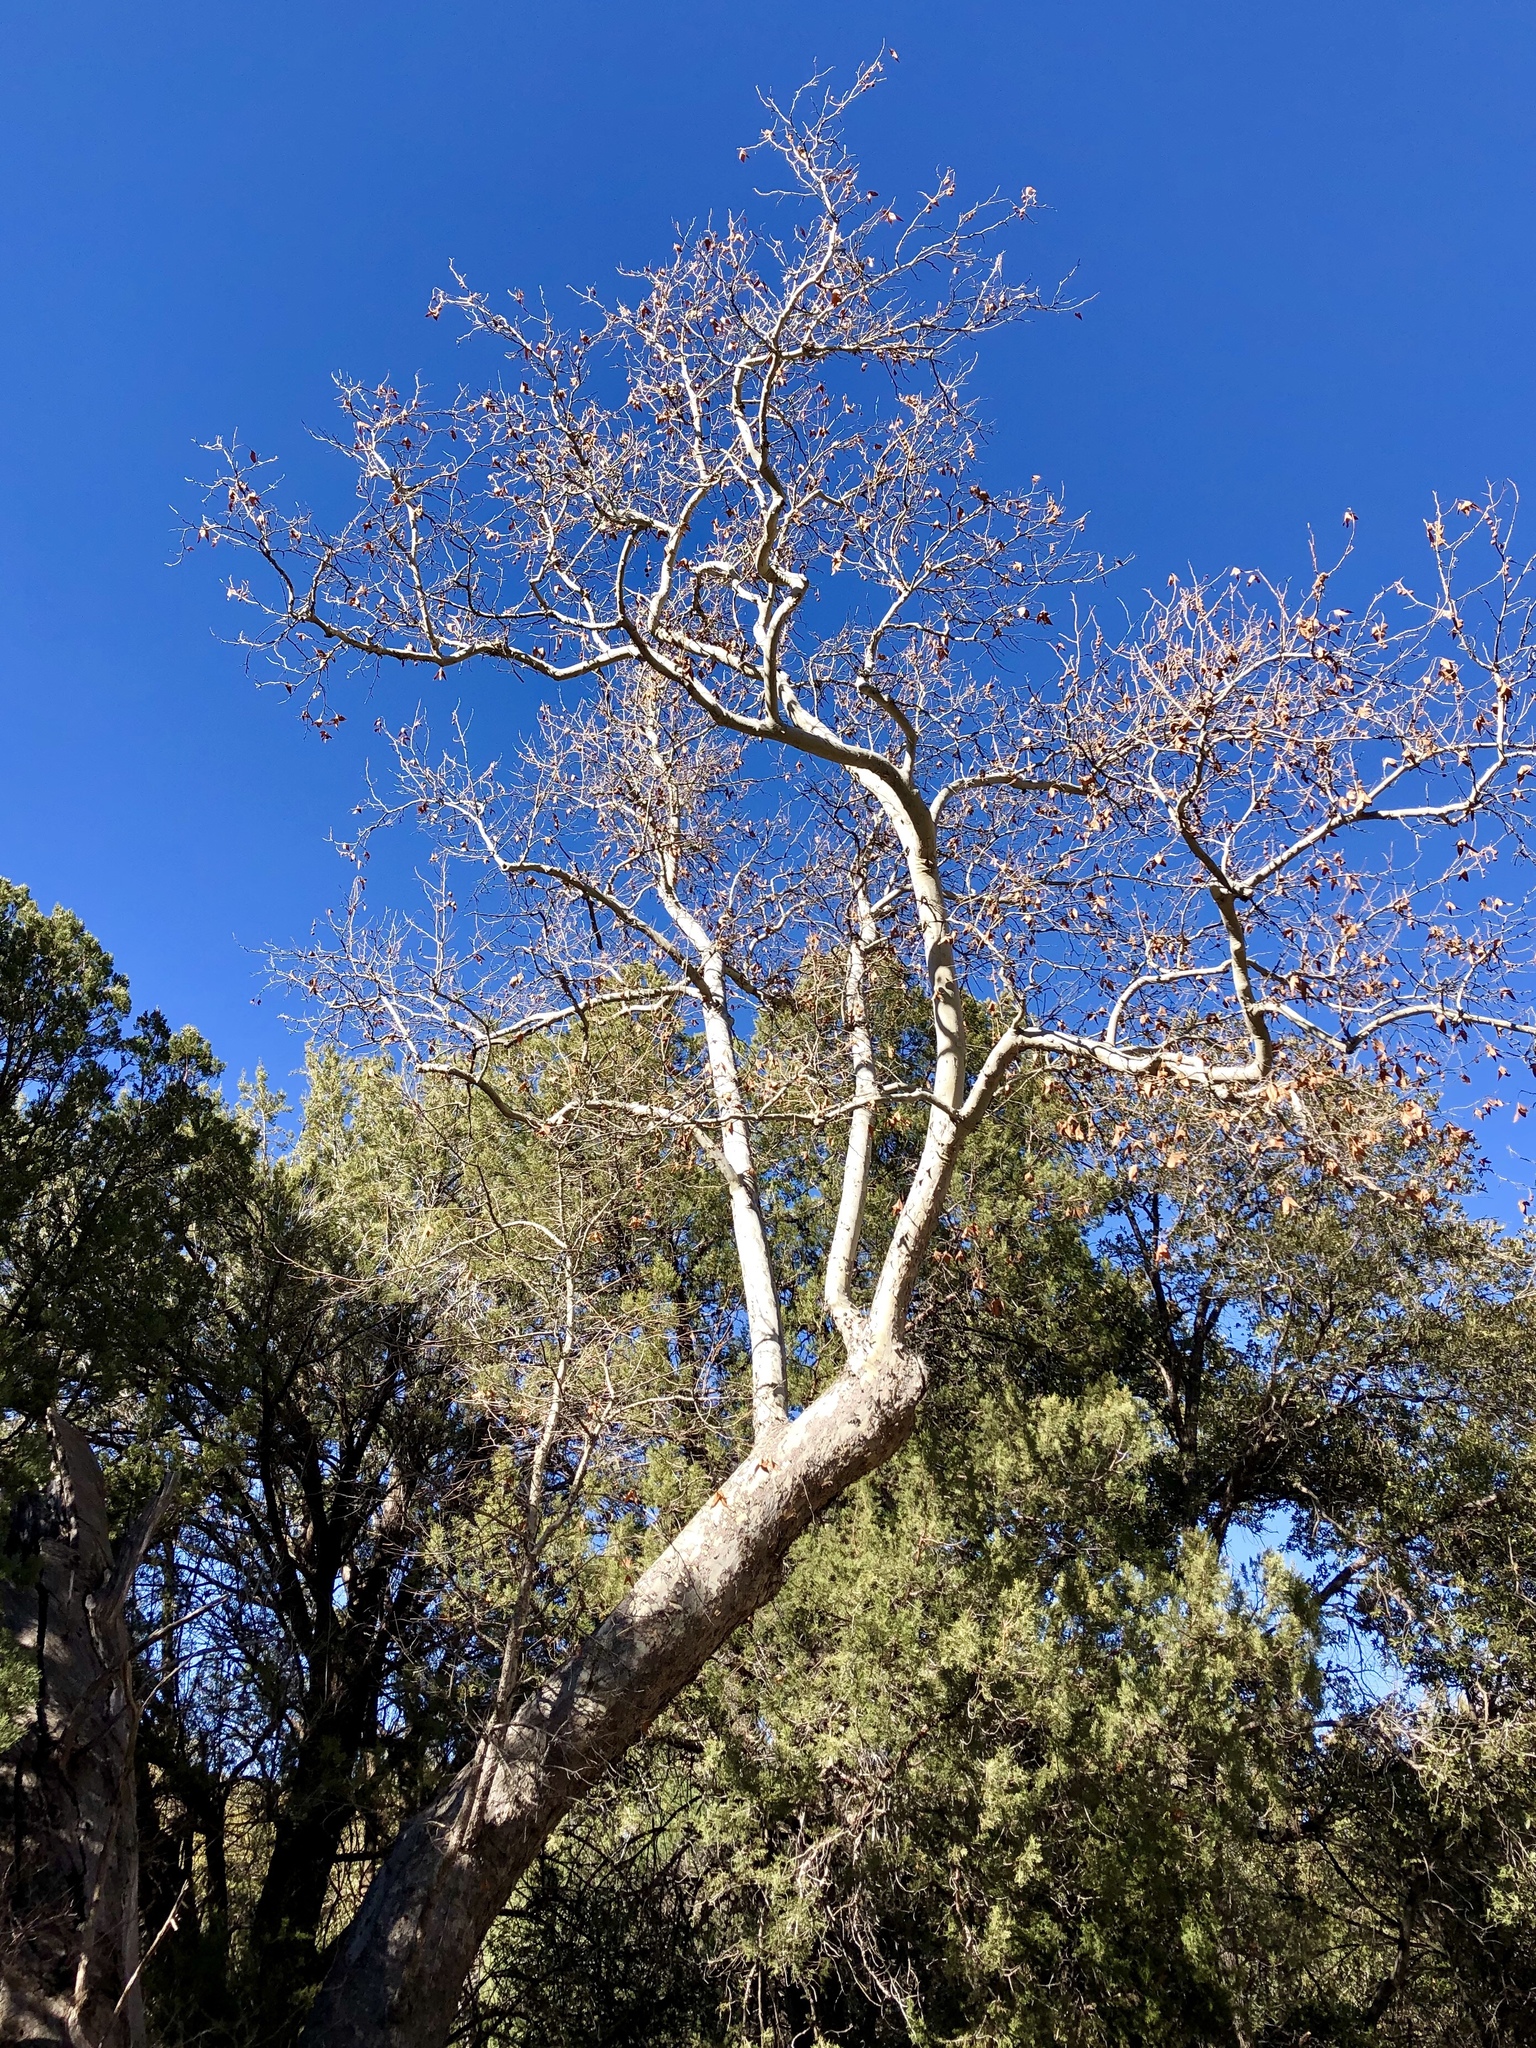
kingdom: Plantae
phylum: Tracheophyta
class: Magnoliopsida
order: Proteales
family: Platanaceae
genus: Platanus
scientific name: Platanus wrightii
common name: Arizona sycamore
